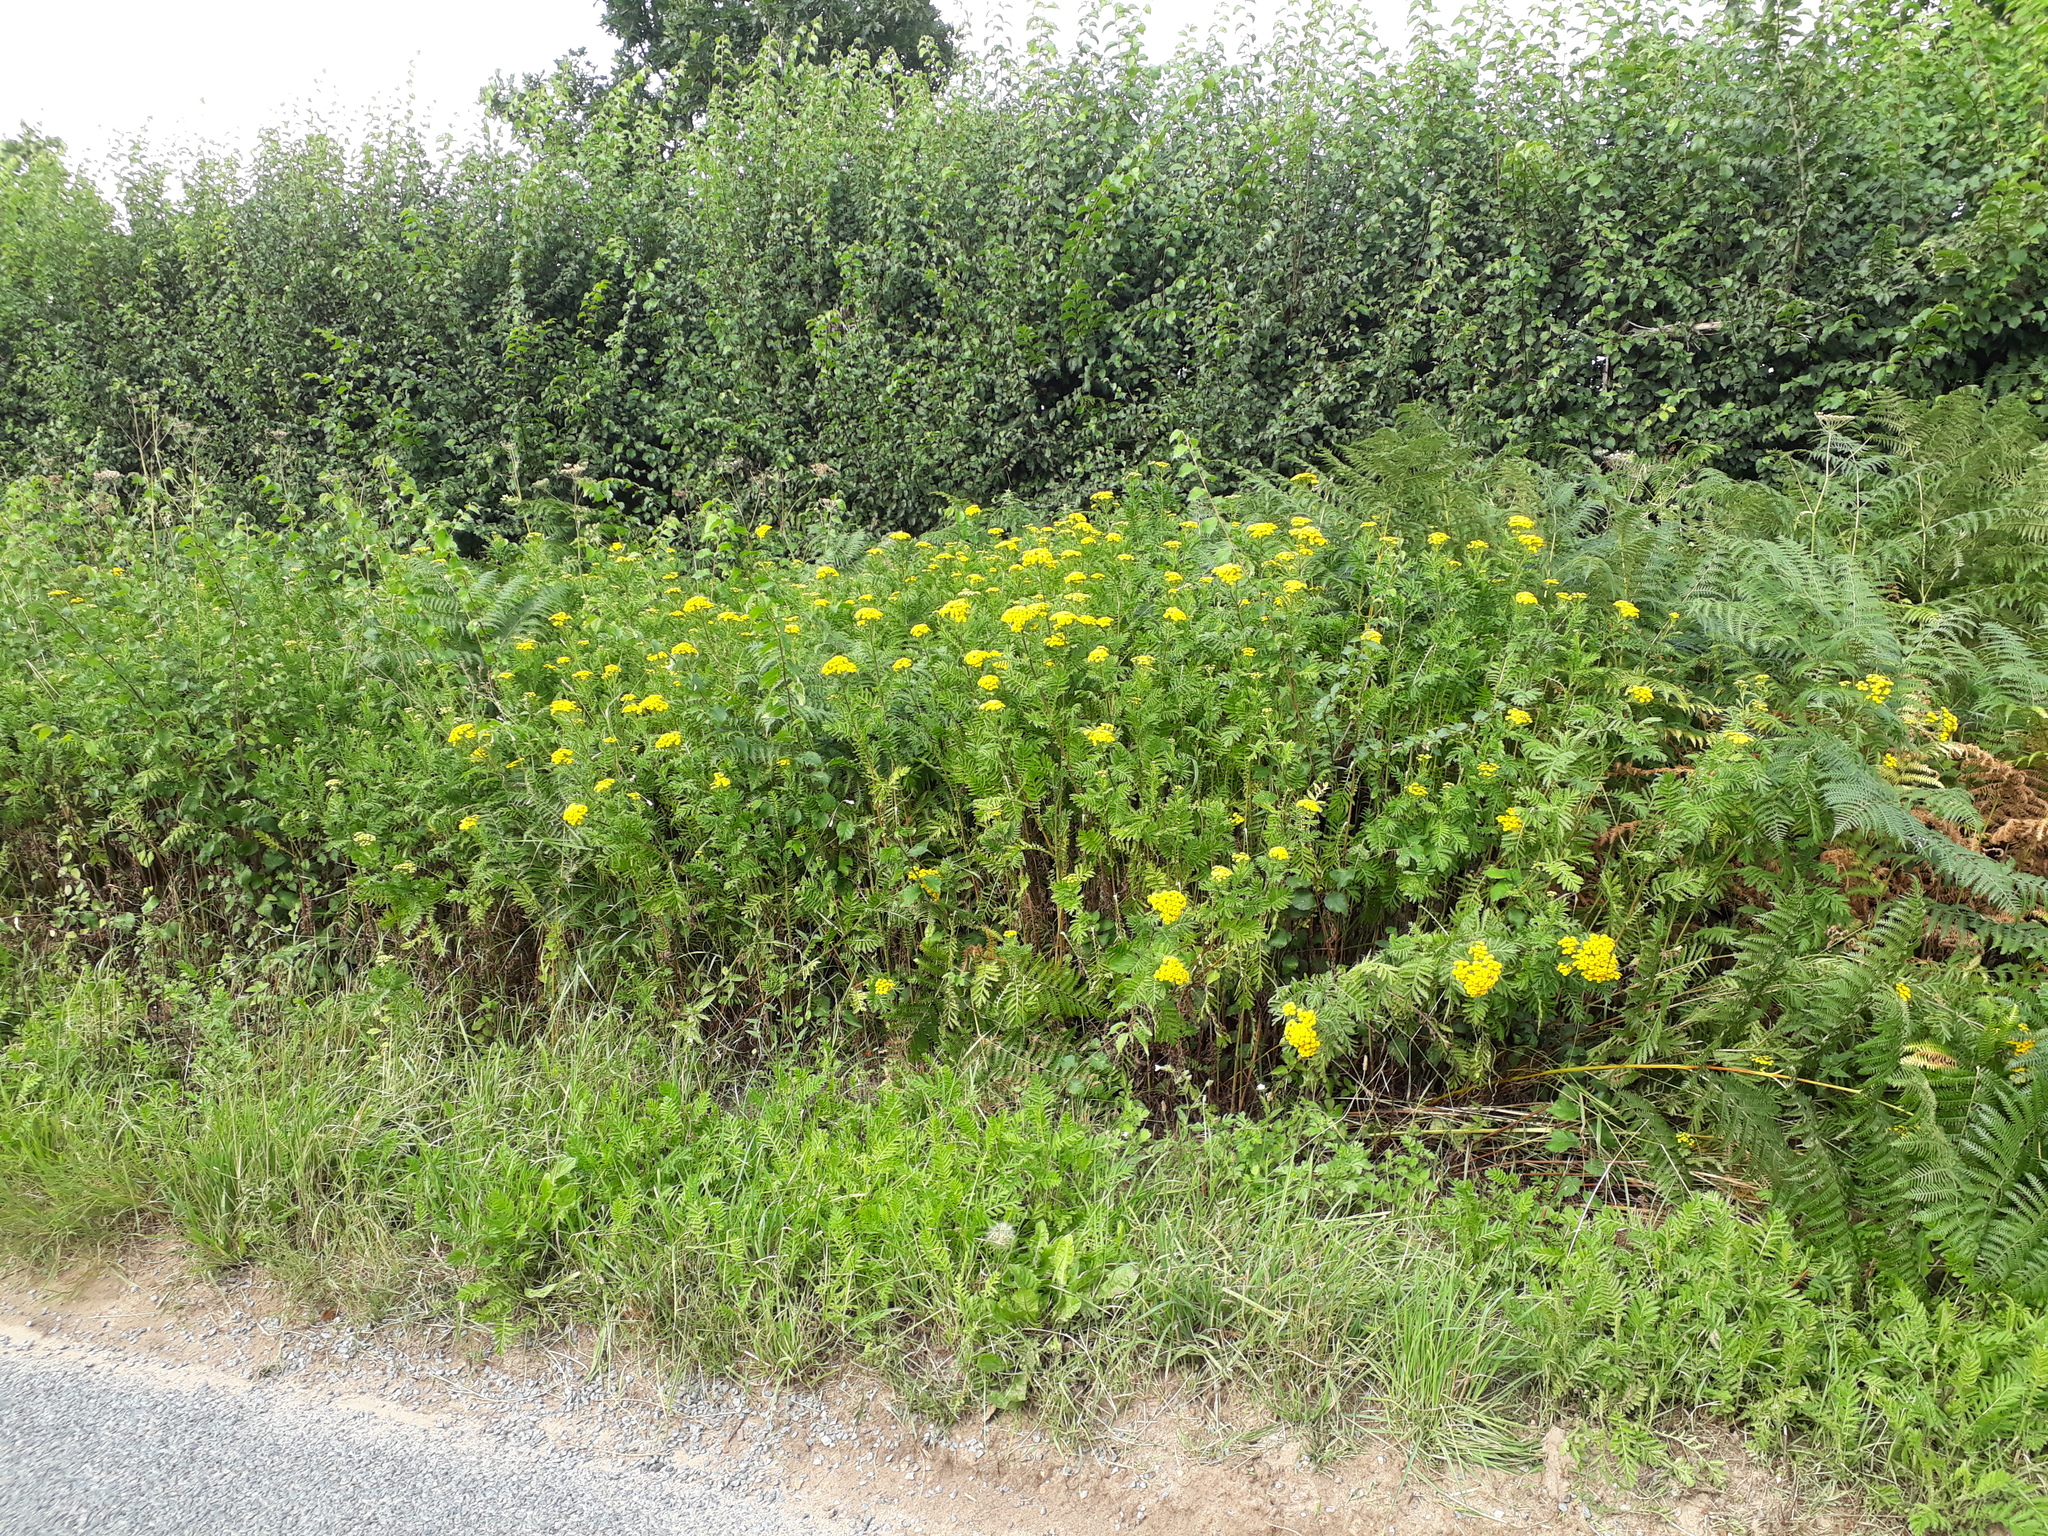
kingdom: Plantae
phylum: Tracheophyta
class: Magnoliopsida
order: Asterales
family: Asteraceae
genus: Tanacetum
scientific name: Tanacetum vulgare
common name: Common tansy
